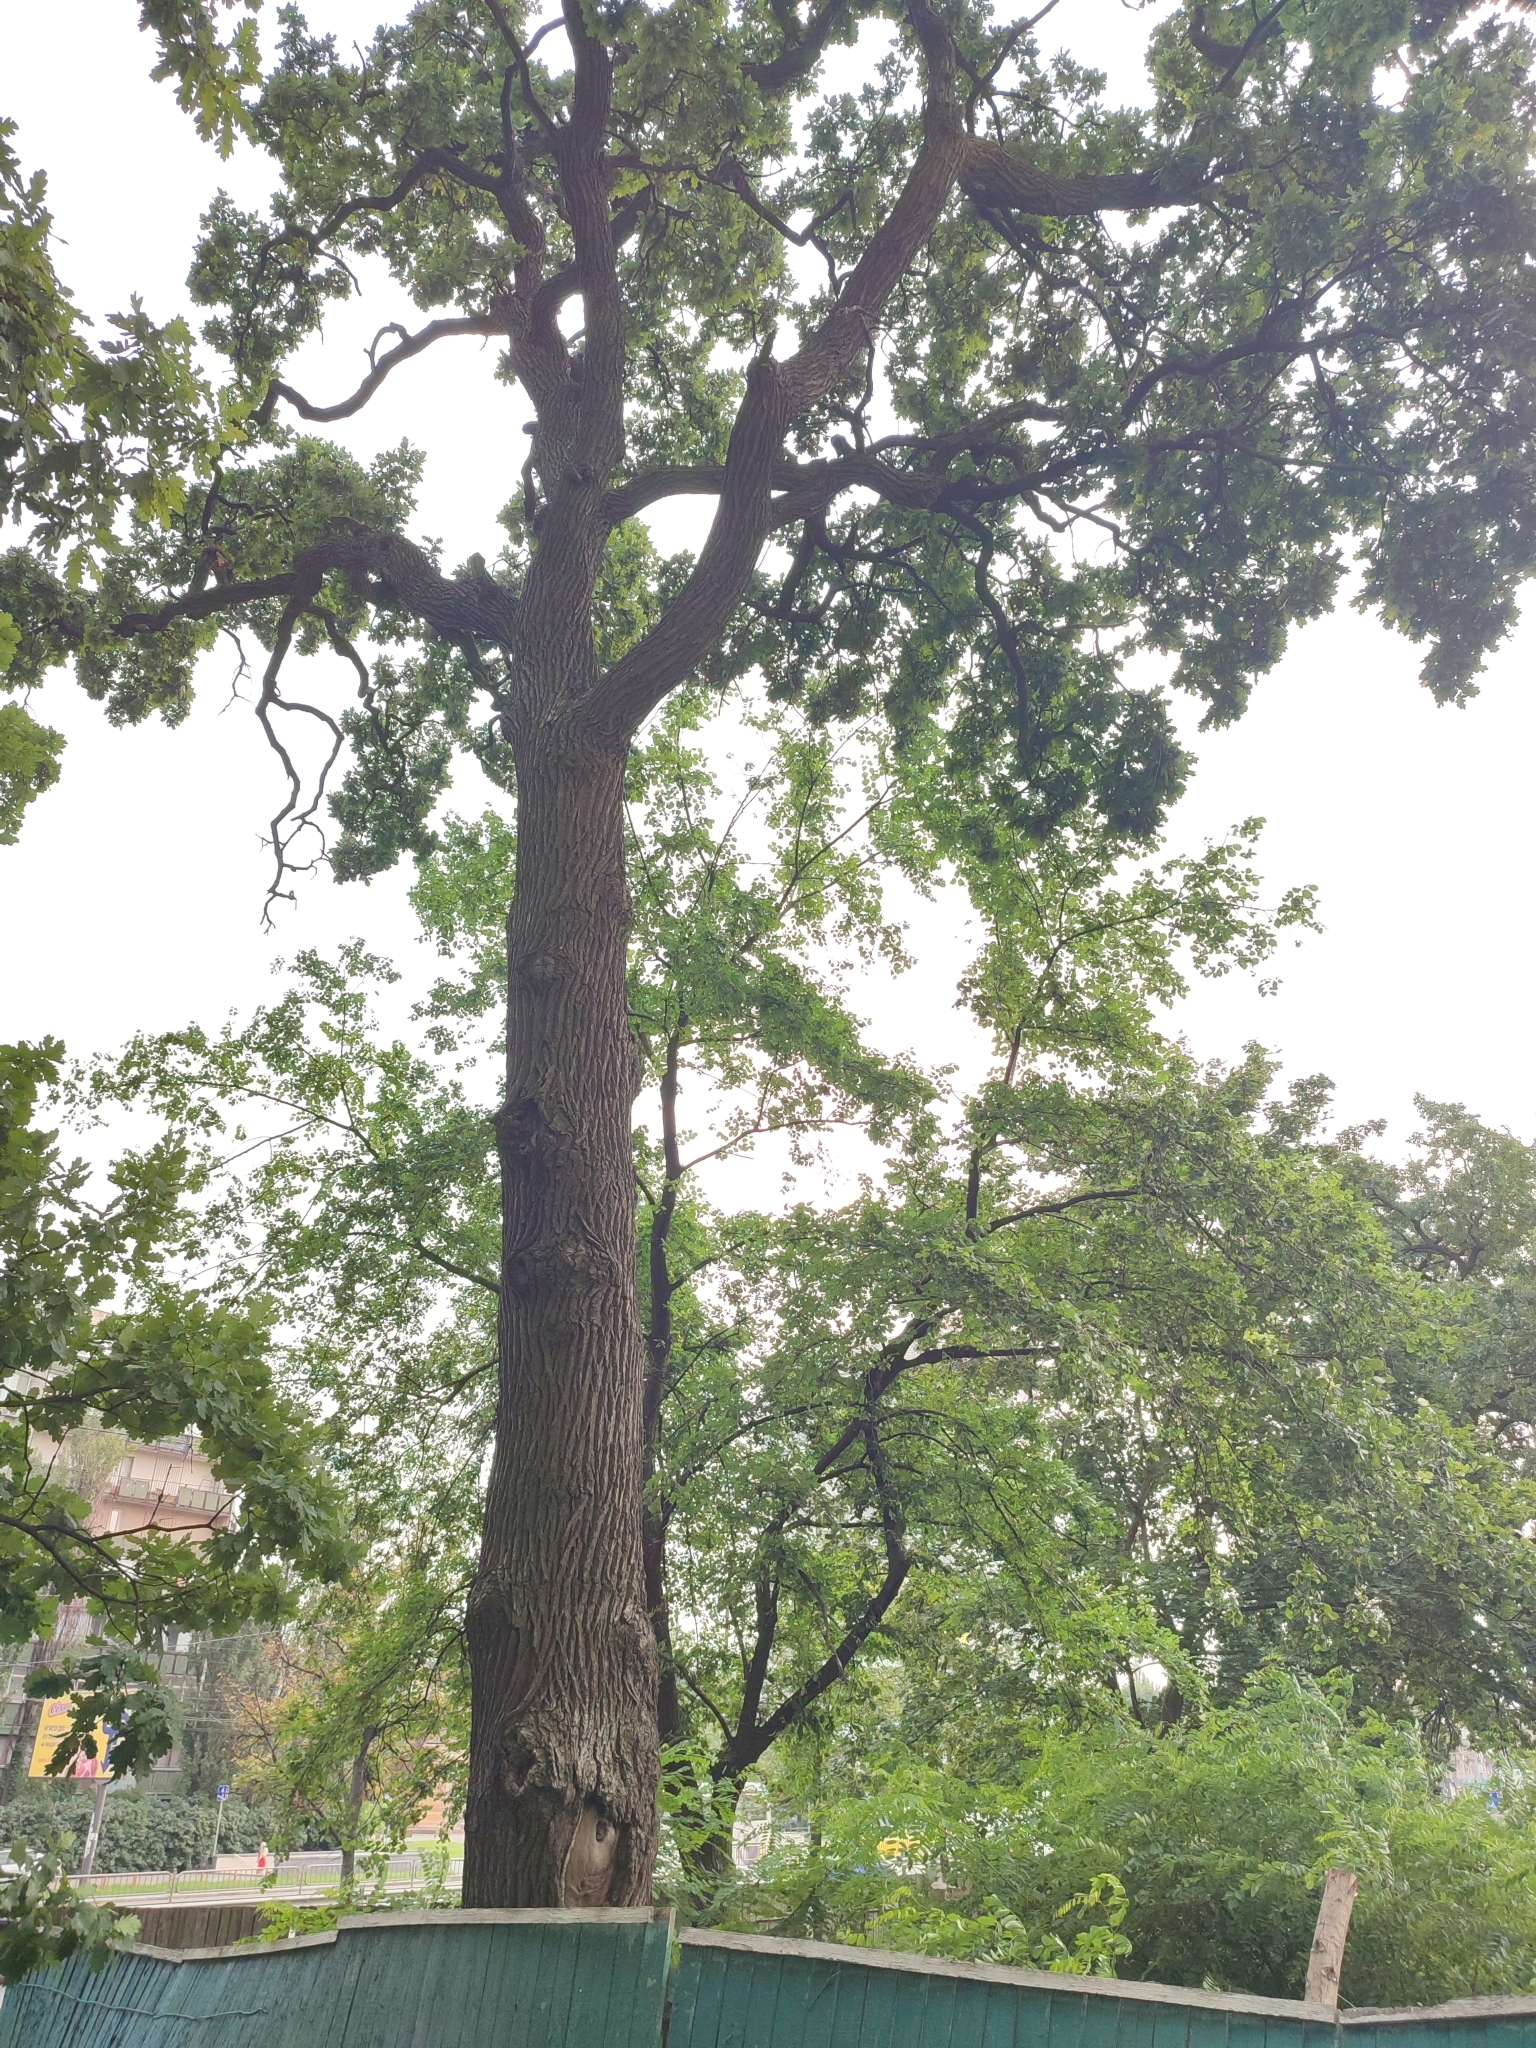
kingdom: Plantae
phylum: Tracheophyta
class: Magnoliopsida
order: Fagales
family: Fagaceae
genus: Quercus
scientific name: Quercus robur
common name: Pedunculate oak
